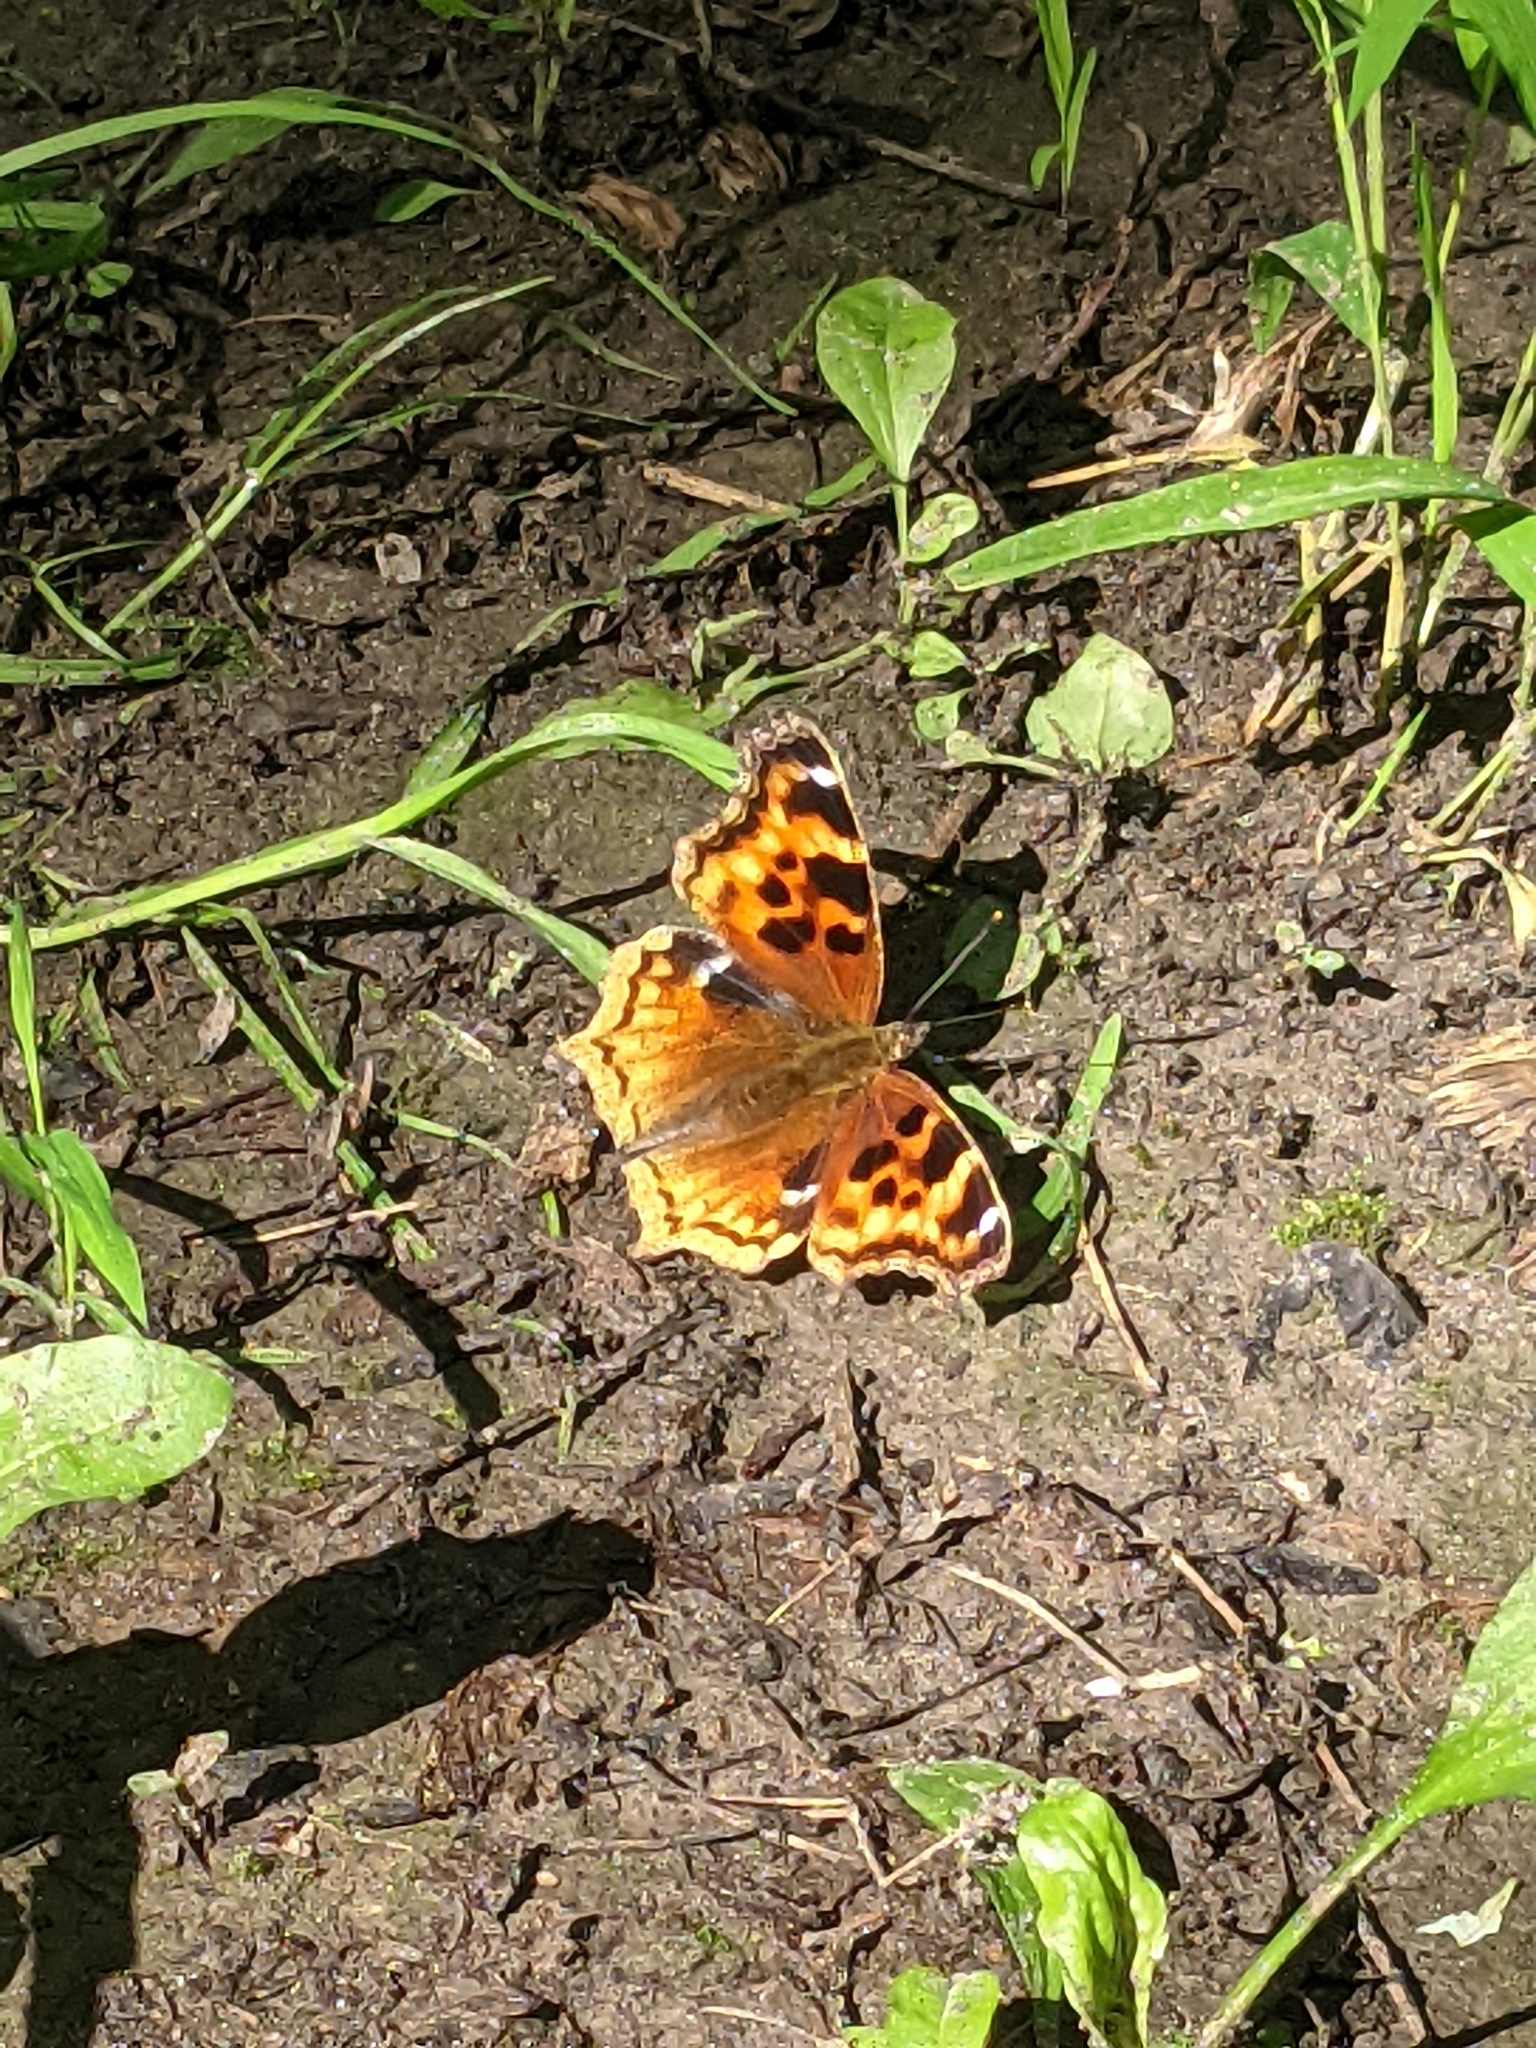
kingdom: Animalia
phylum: Arthropoda
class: Insecta
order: Lepidoptera
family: Nymphalidae
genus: Polygonia
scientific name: Polygonia vaualbum
